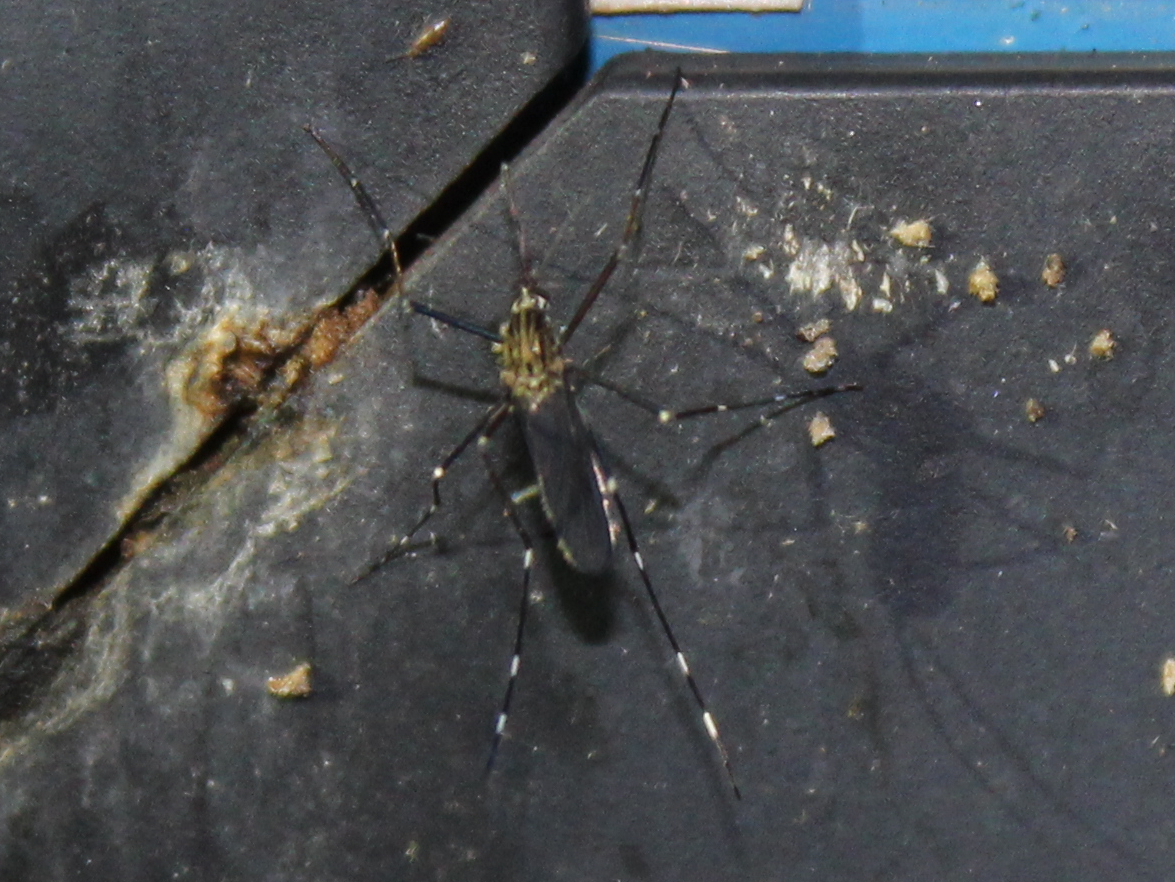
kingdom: Animalia
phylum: Arthropoda
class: Insecta
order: Diptera
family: Culicidae
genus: Aedes
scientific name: Aedes japonicus
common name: Asian bush mosquito
